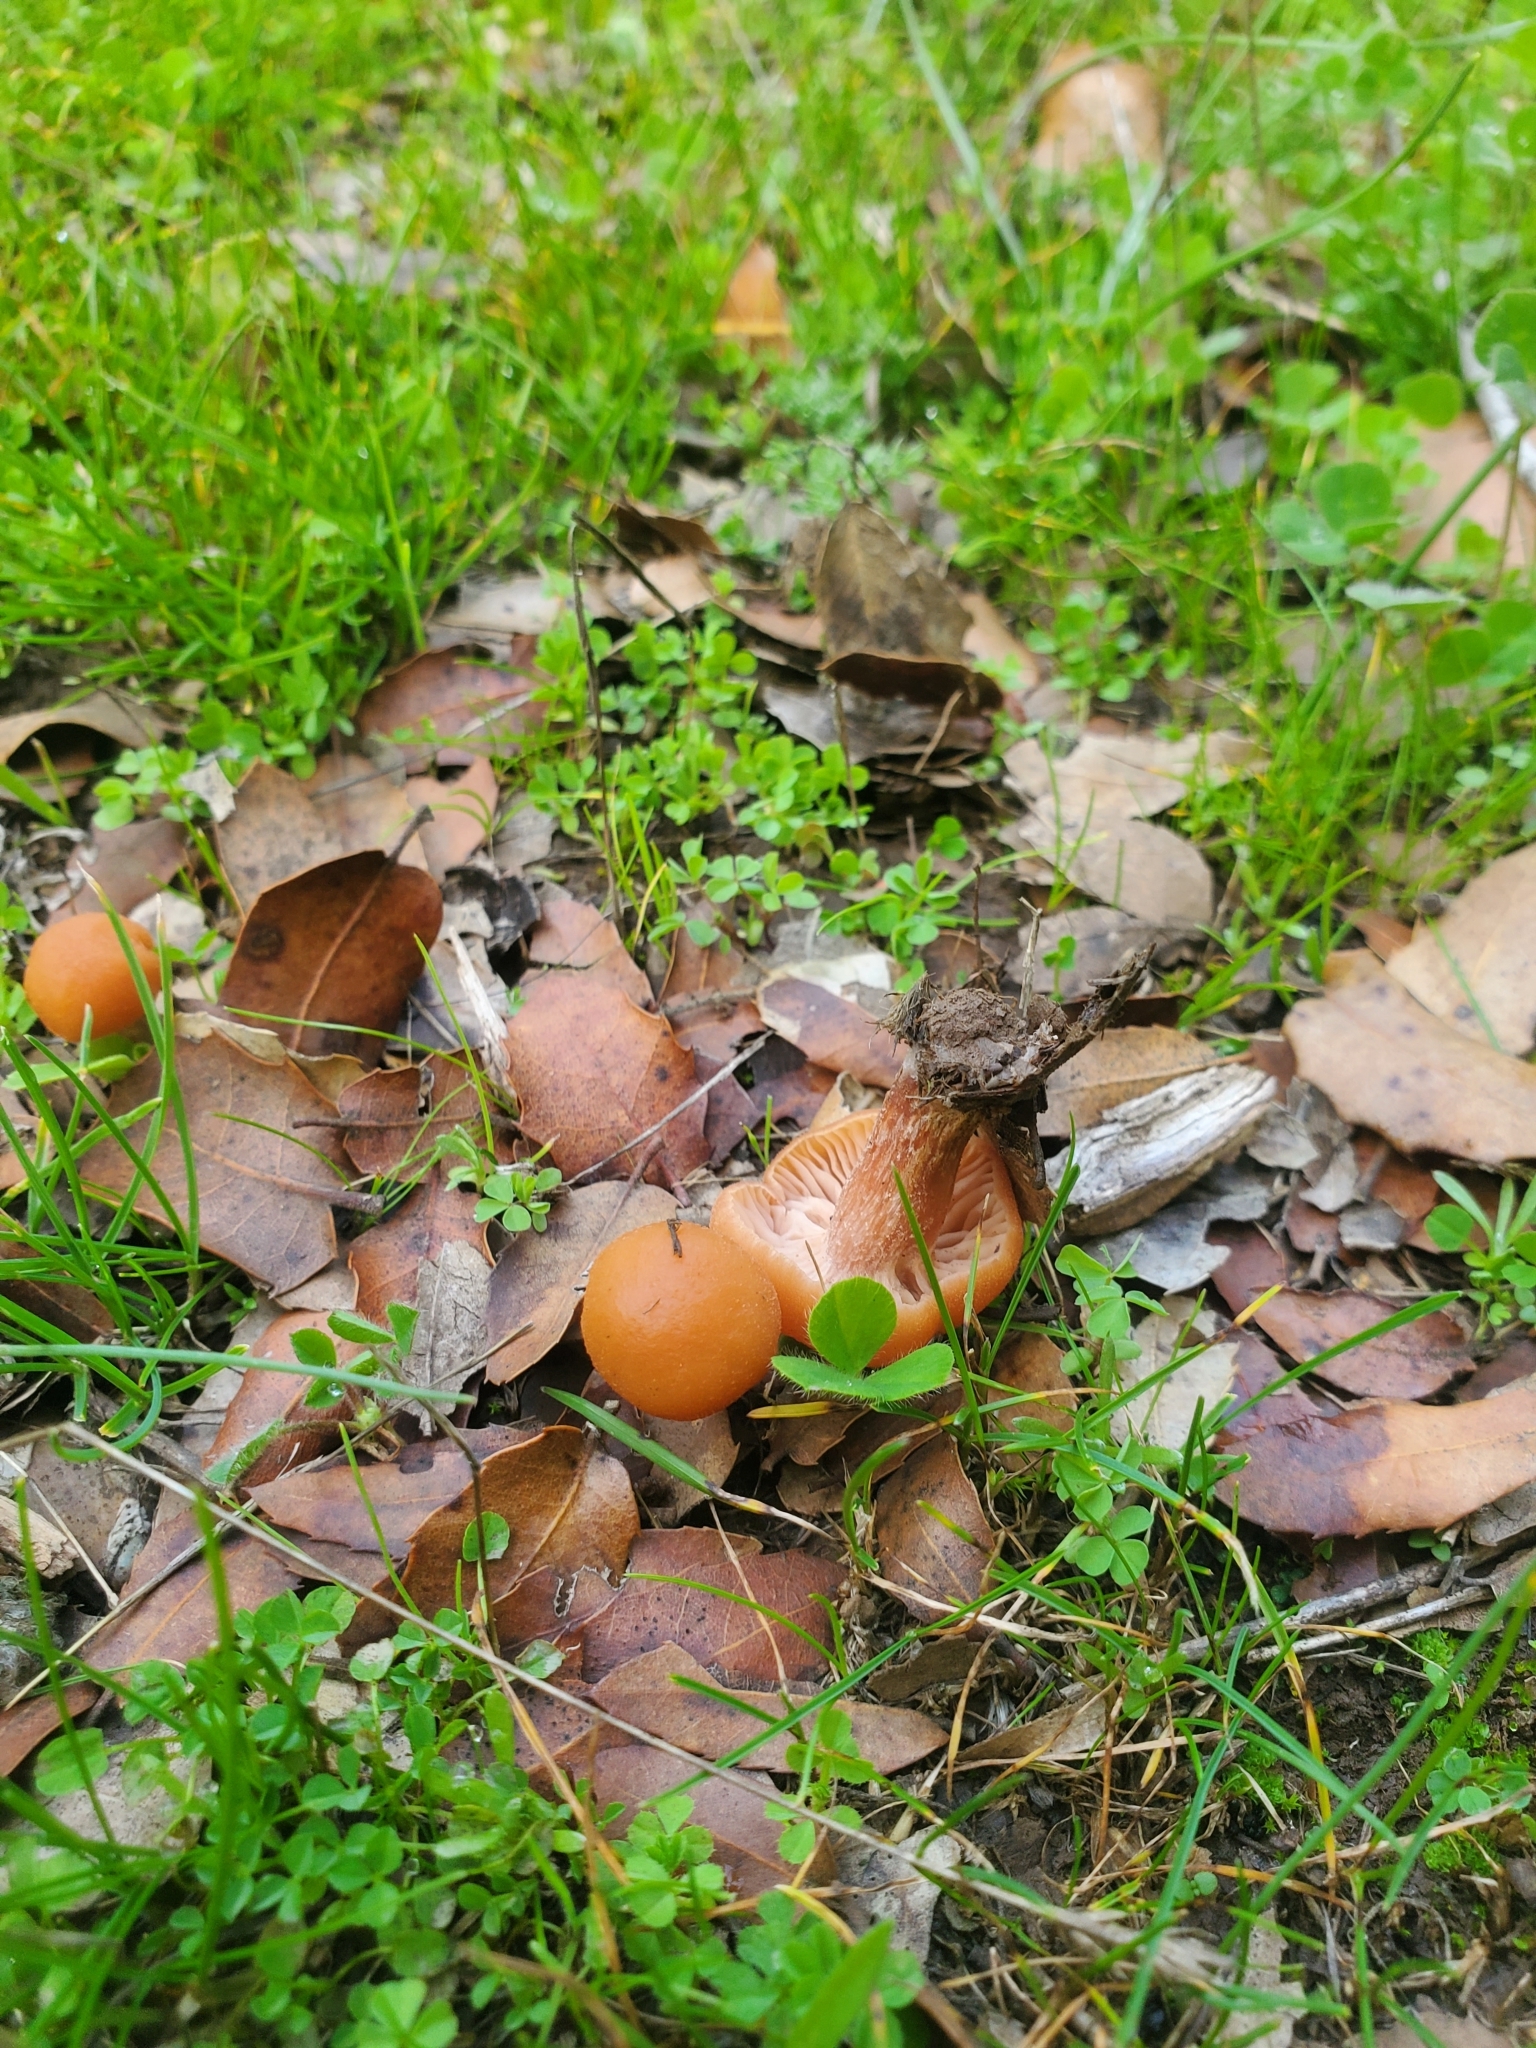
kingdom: Fungi
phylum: Basidiomycota
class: Agaricomycetes
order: Agaricales
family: Hydnangiaceae
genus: Laccaria
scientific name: Laccaria laccata
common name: Deceiver
